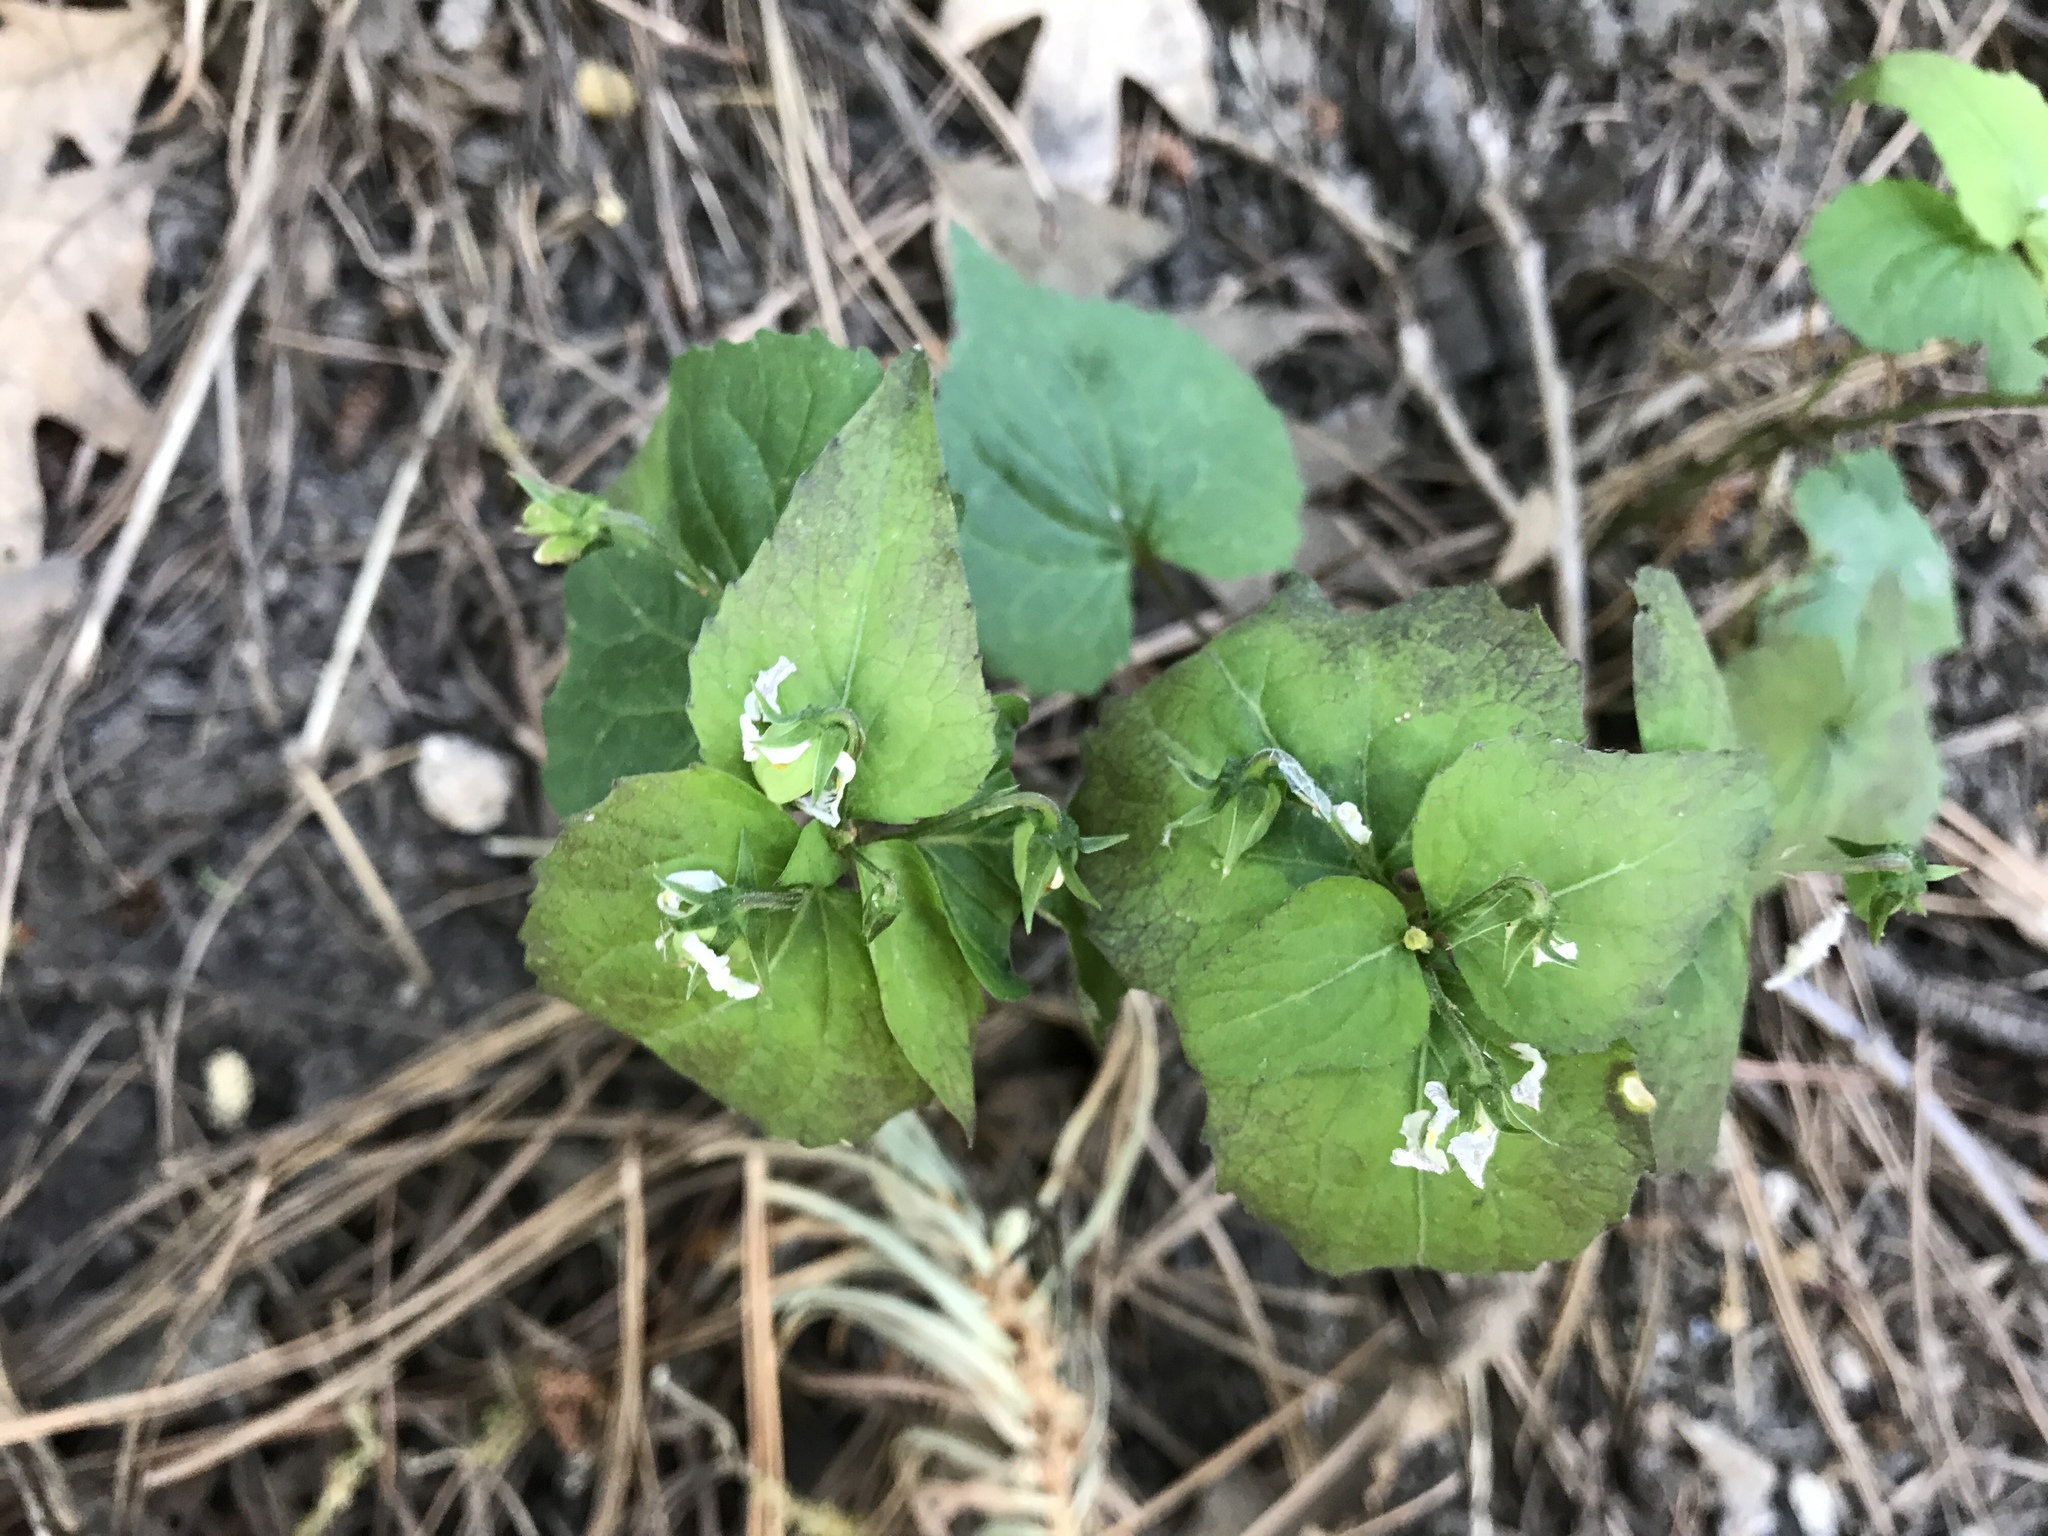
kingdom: Plantae
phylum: Tracheophyta
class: Magnoliopsida
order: Malpighiales
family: Violaceae
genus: Viola
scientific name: Viola canadensis
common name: Canada violet
